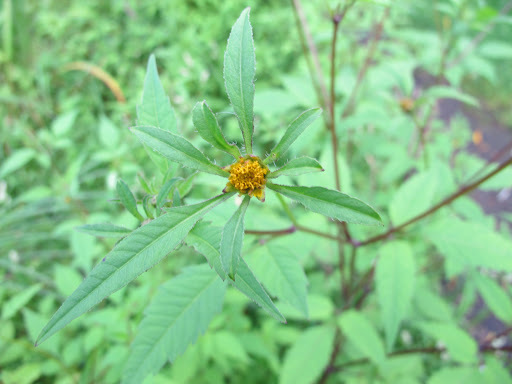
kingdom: Plantae
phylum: Tracheophyta
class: Magnoliopsida
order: Asterales
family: Asteraceae
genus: Bidens
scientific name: Bidens frondosa
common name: Beggarticks
